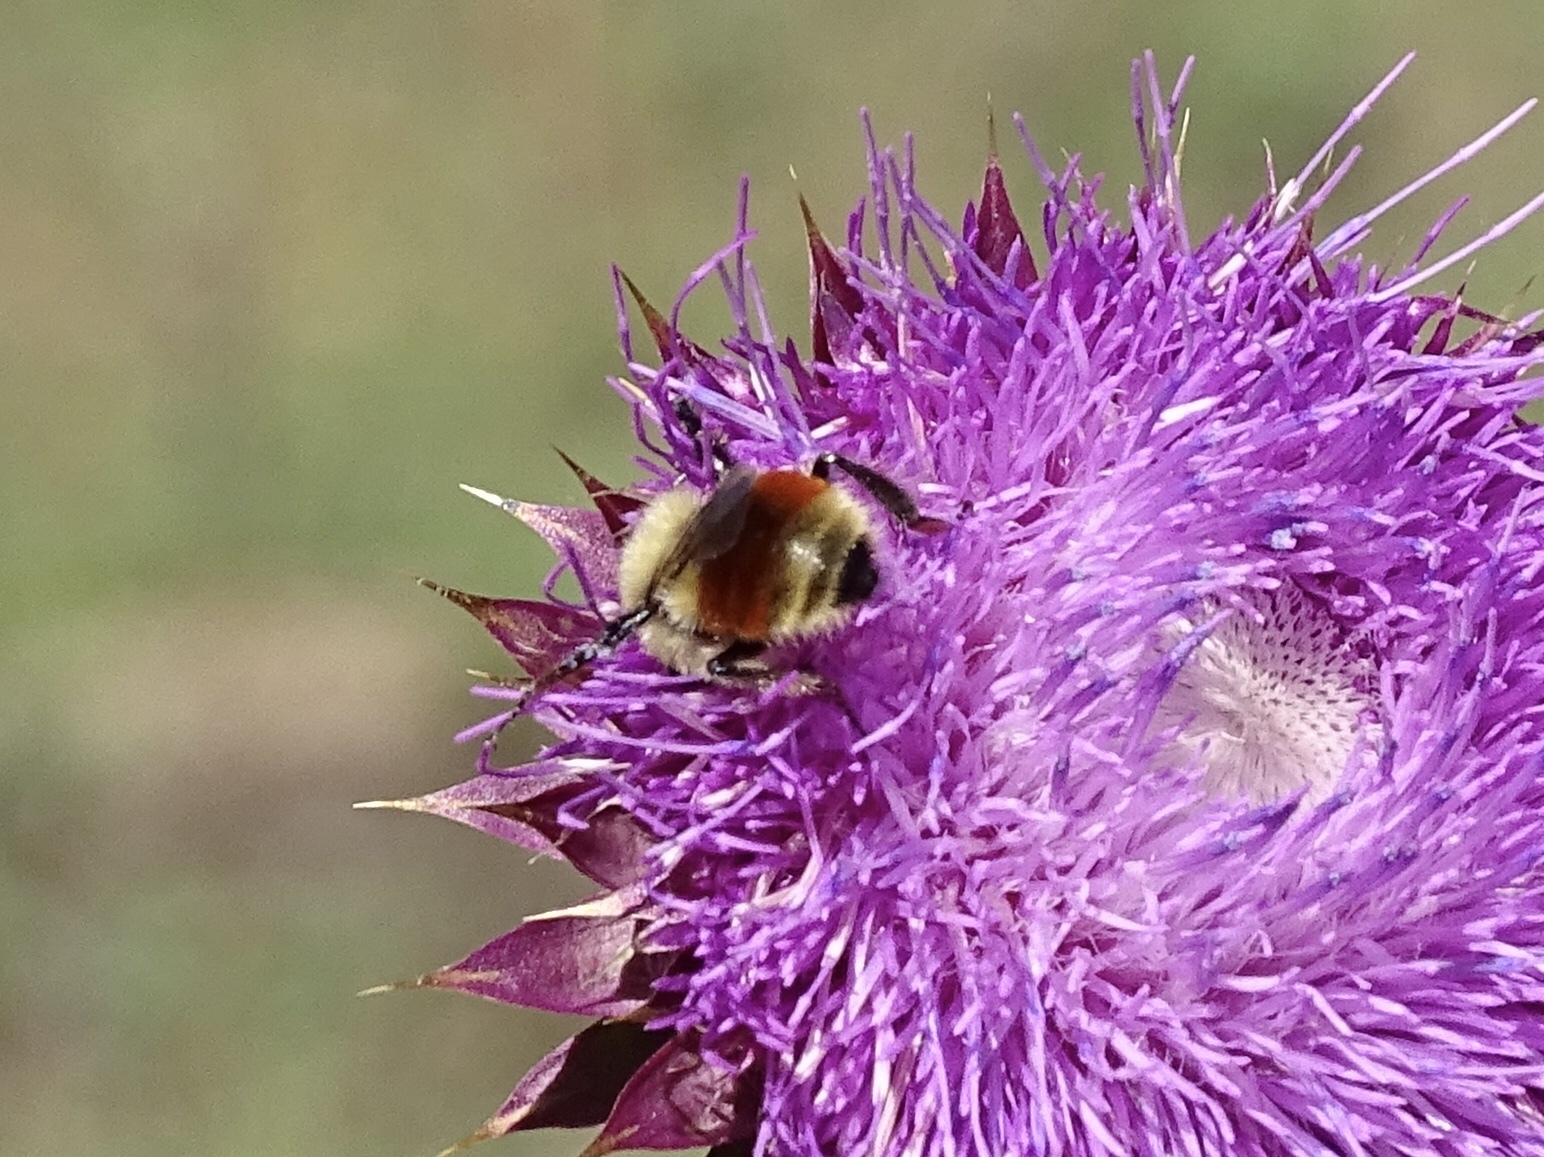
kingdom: Animalia
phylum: Arthropoda
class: Insecta
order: Hymenoptera
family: Apidae
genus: Bombus
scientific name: Bombus huntii
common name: Hunt bumble bee
